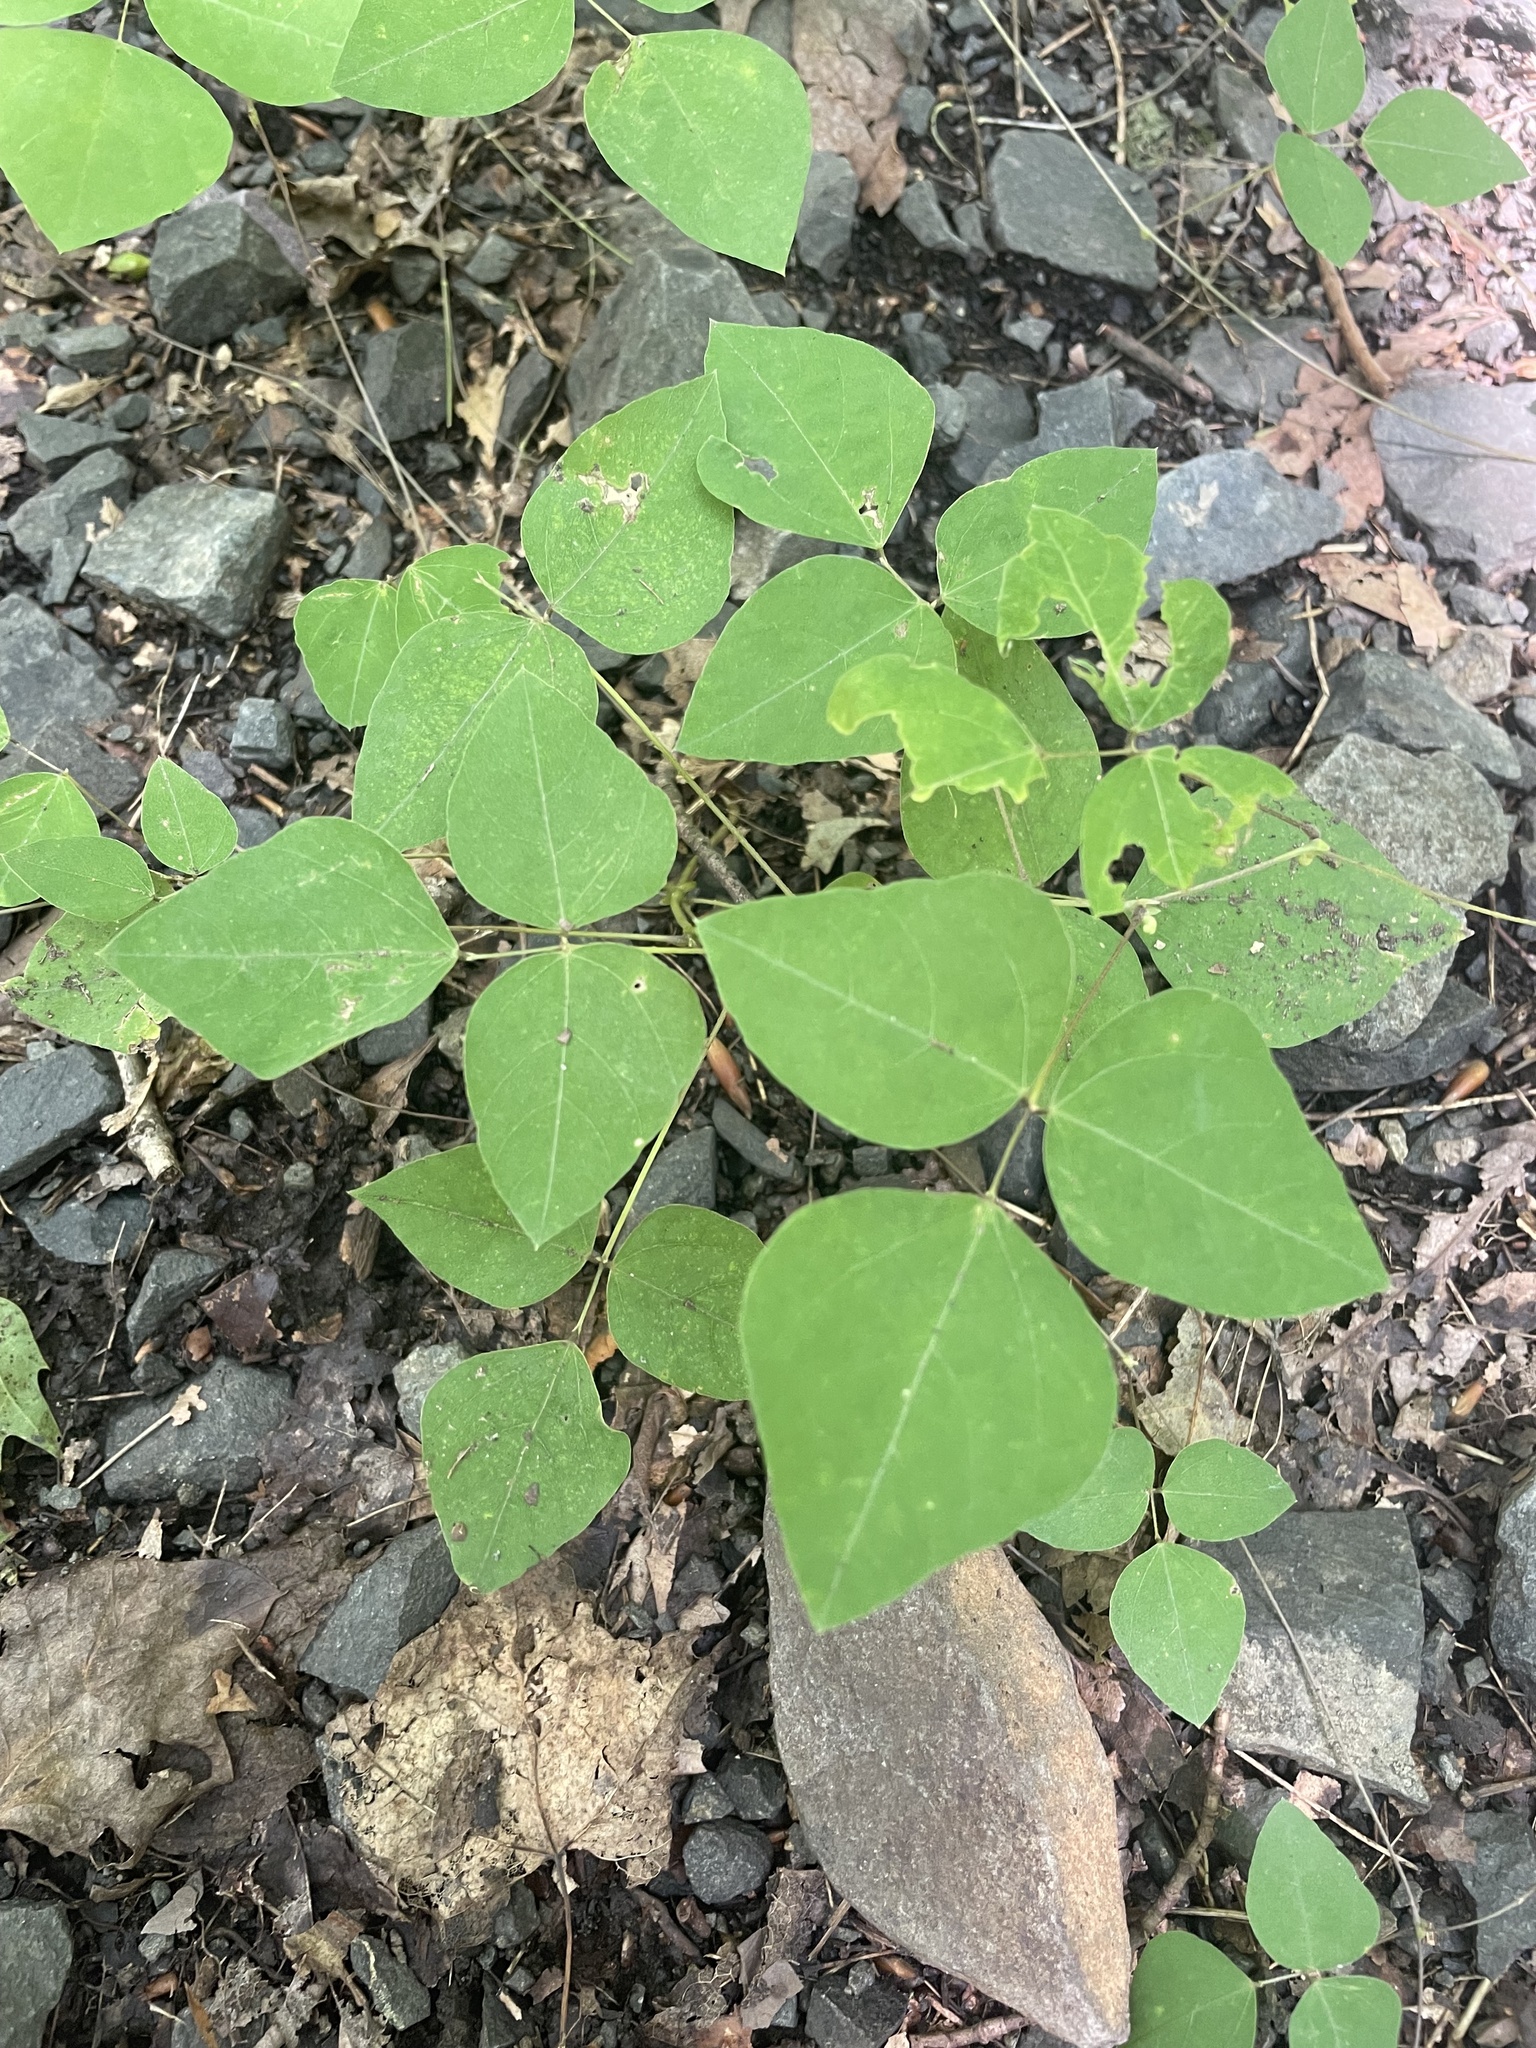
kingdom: Plantae
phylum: Tracheophyta
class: Magnoliopsida
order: Fabales
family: Fabaceae
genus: Amphicarpaea
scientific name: Amphicarpaea bracteata
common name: American hog peanut
